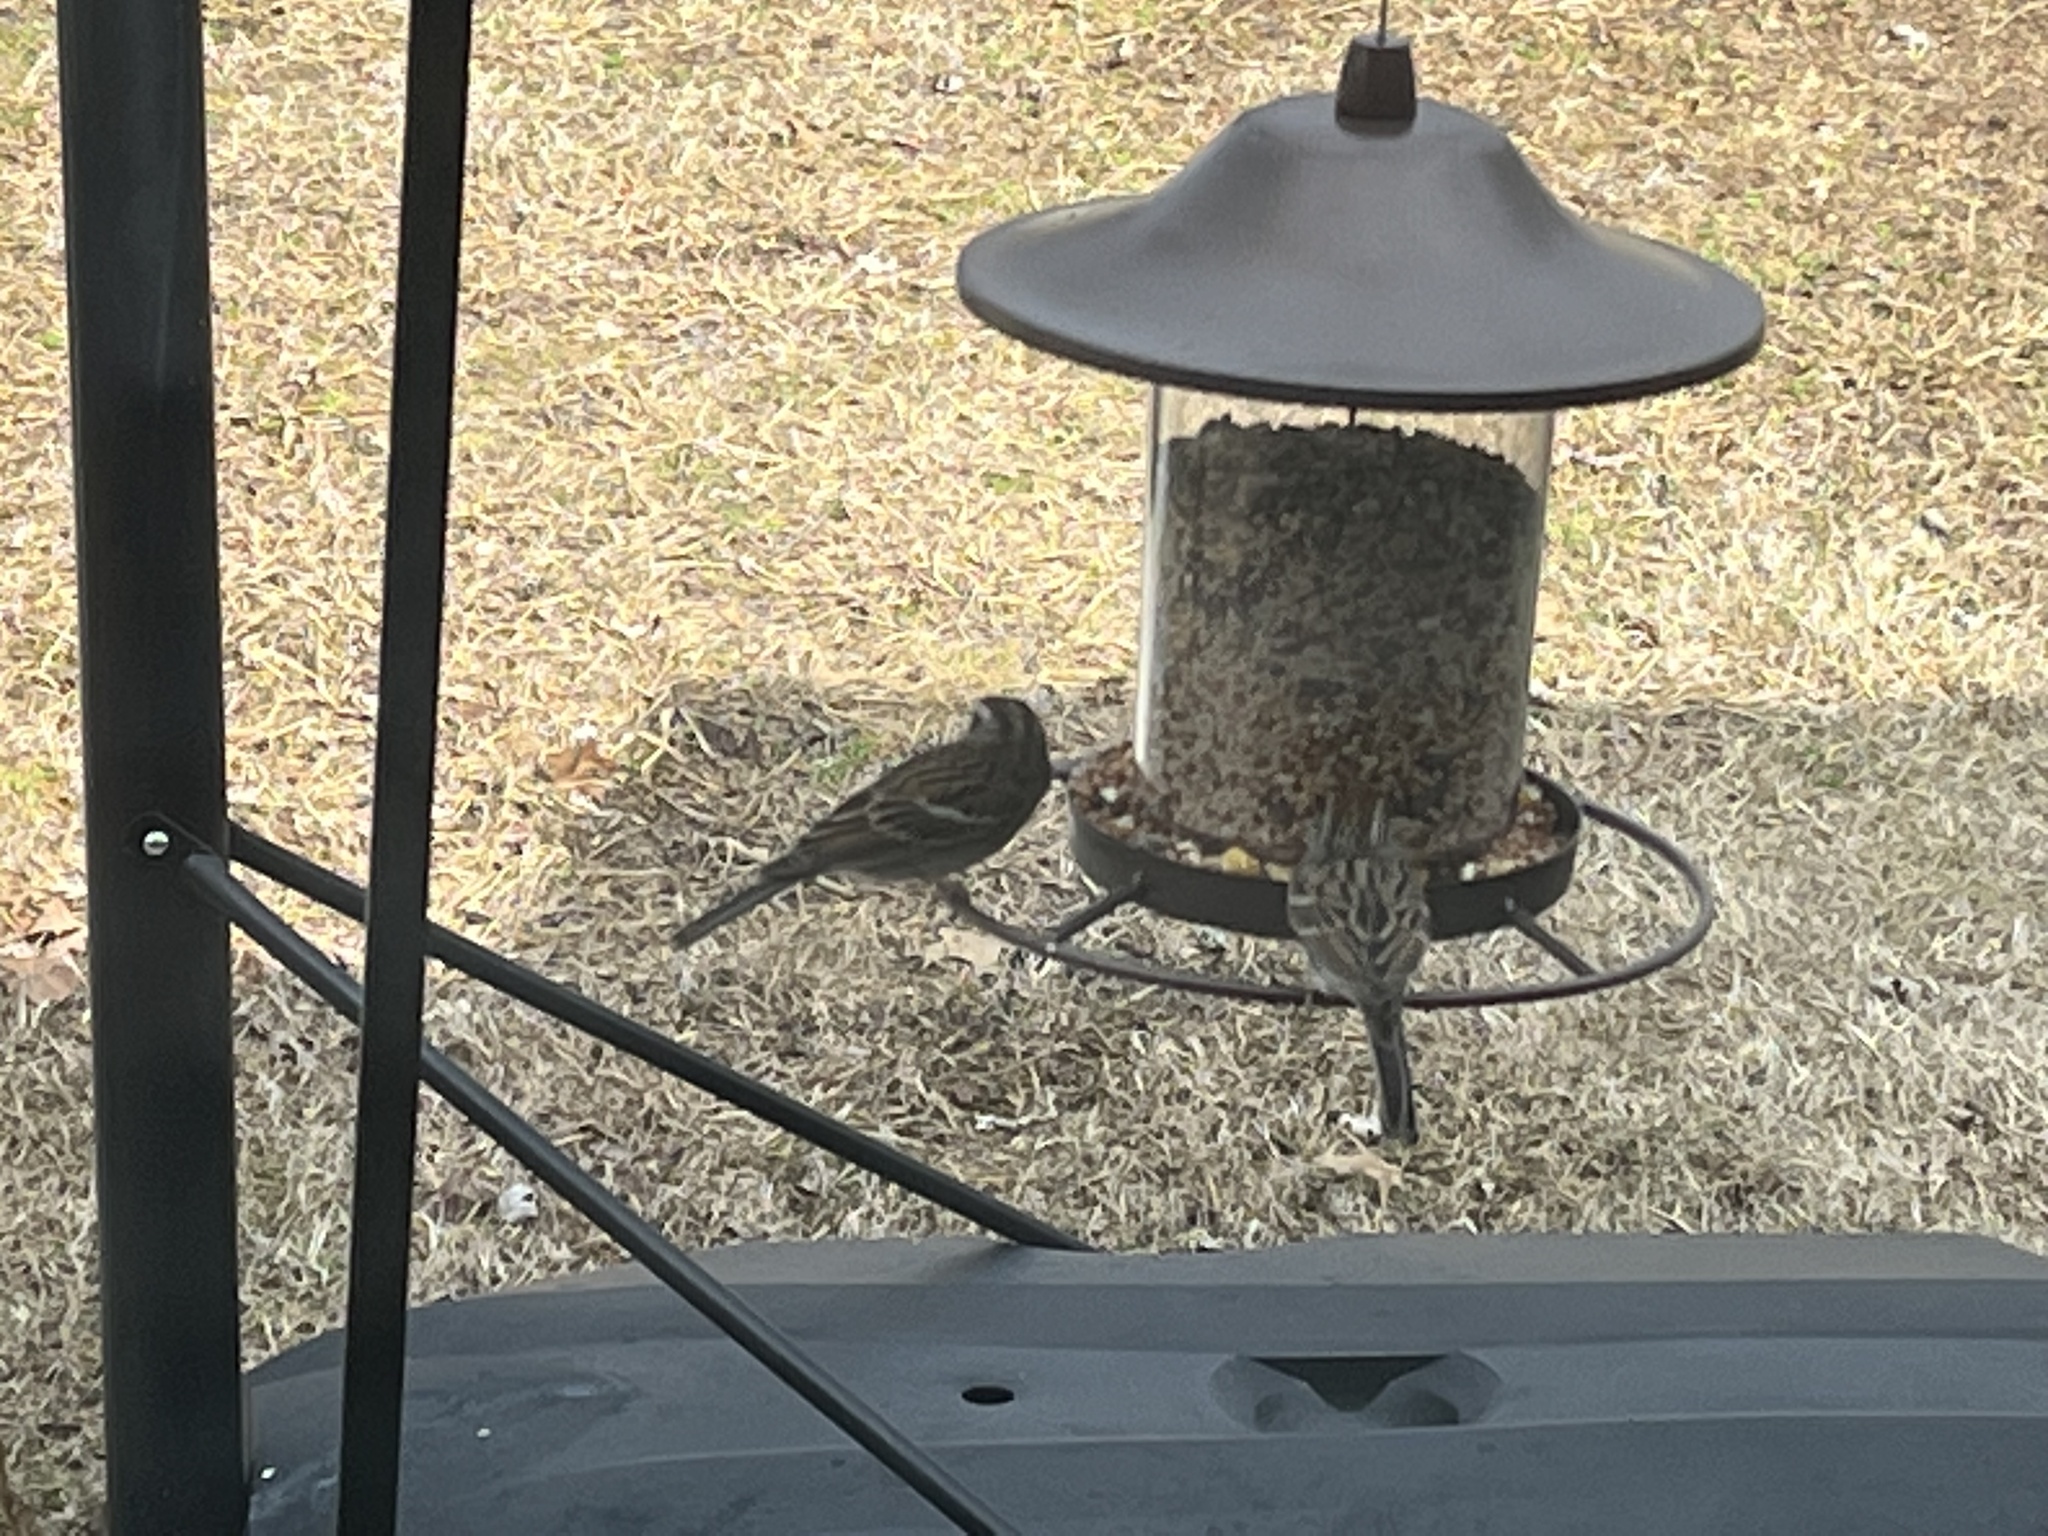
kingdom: Animalia
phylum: Chordata
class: Aves
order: Passeriformes
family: Passerellidae
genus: Spizella
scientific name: Spizella passerina
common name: Chipping sparrow
